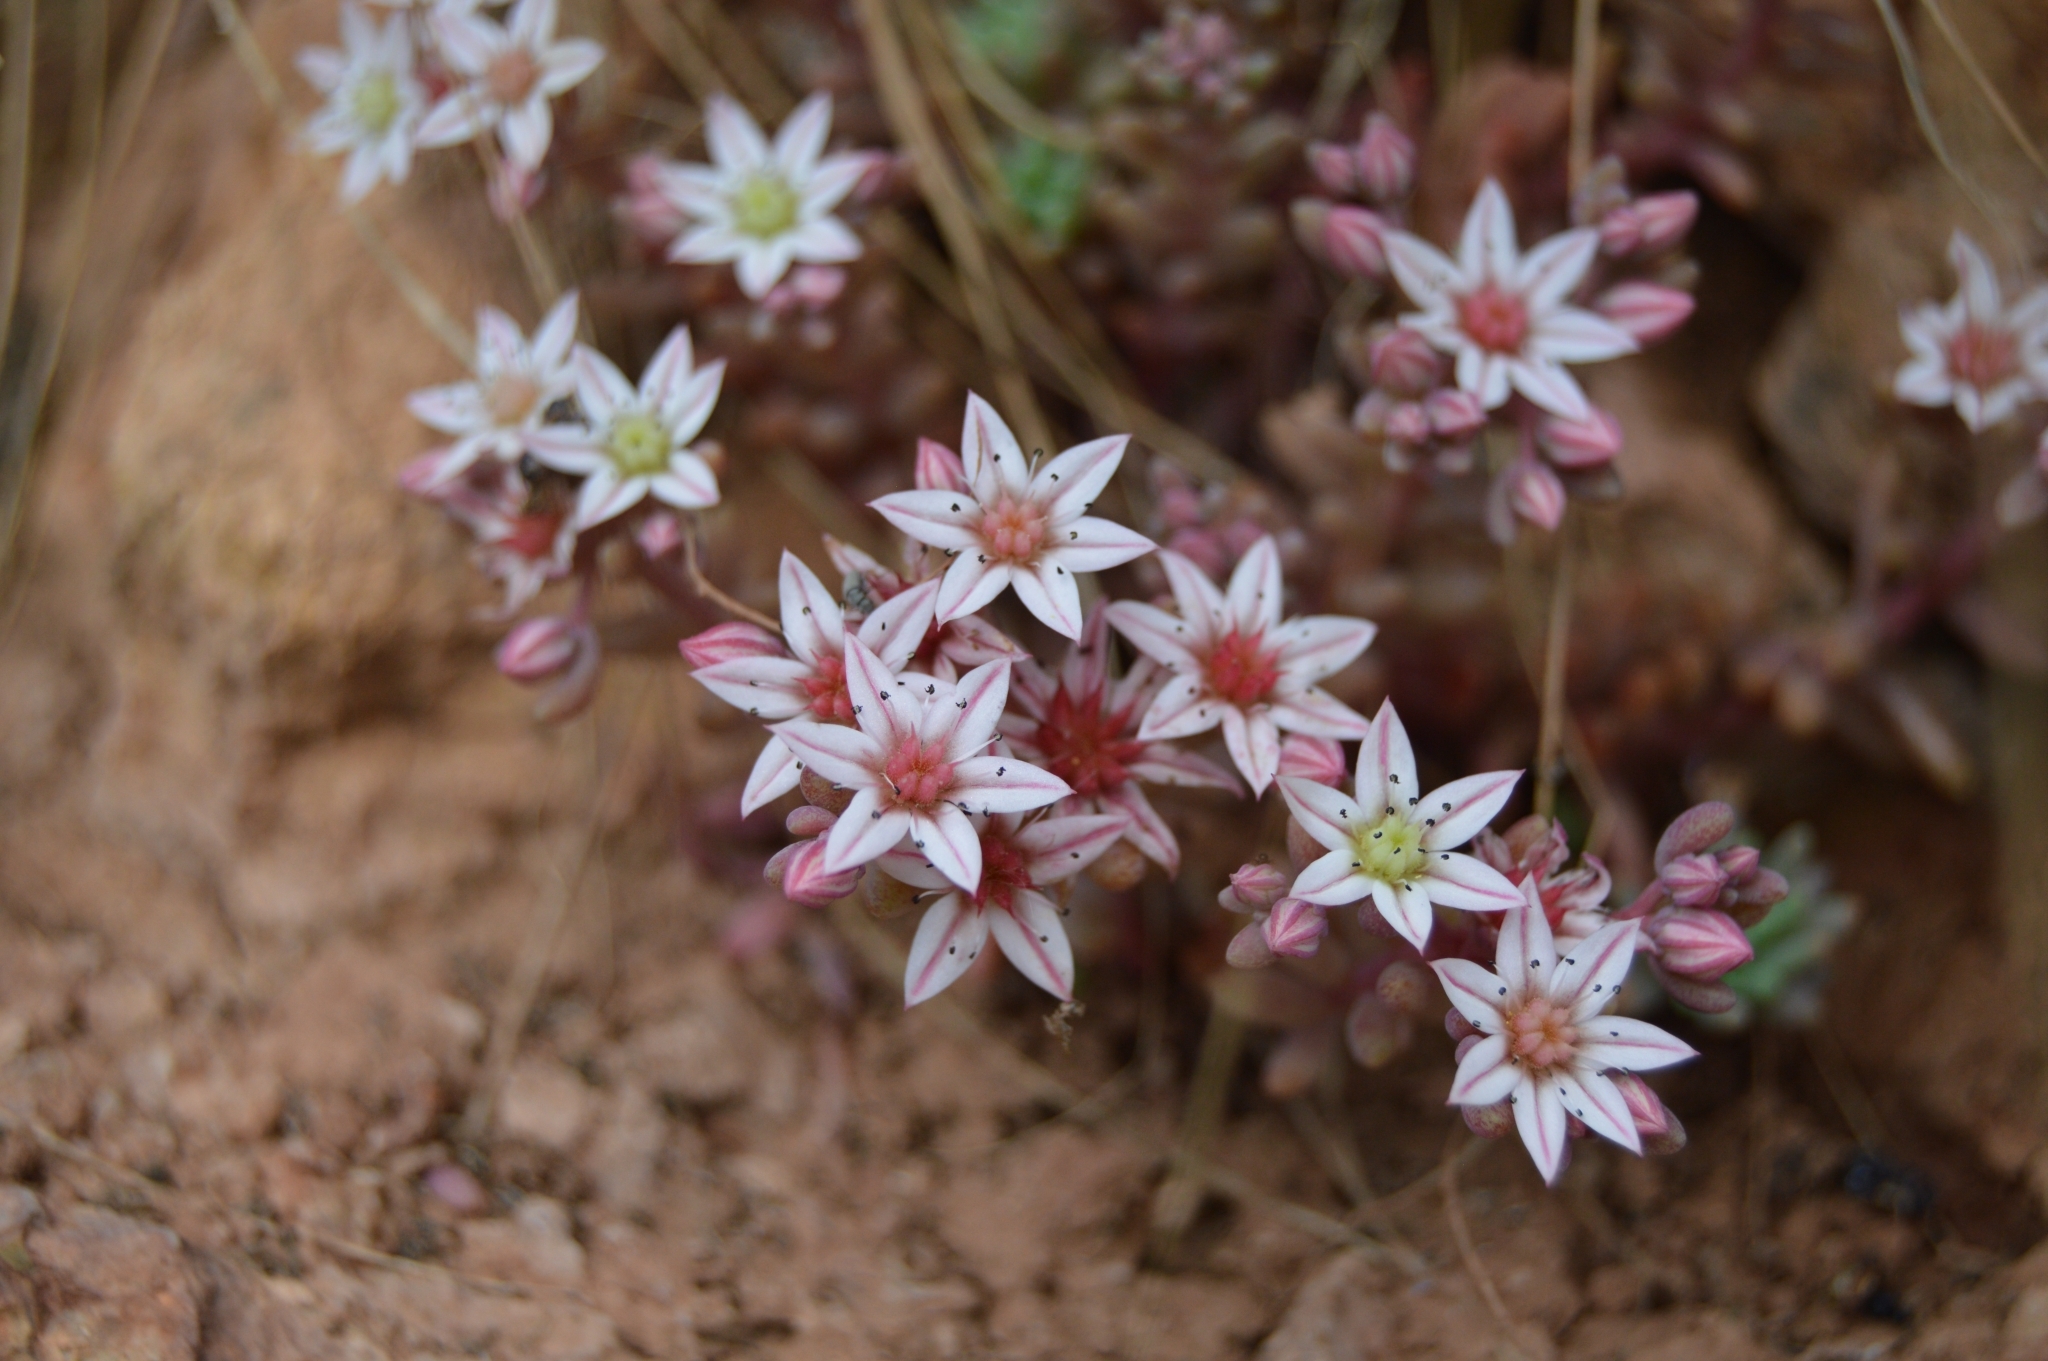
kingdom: Plantae
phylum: Tracheophyta
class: Magnoliopsida
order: Saxifragales
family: Crassulaceae
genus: Sedum
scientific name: Sedum hispanicum
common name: Spanish stonecrop
